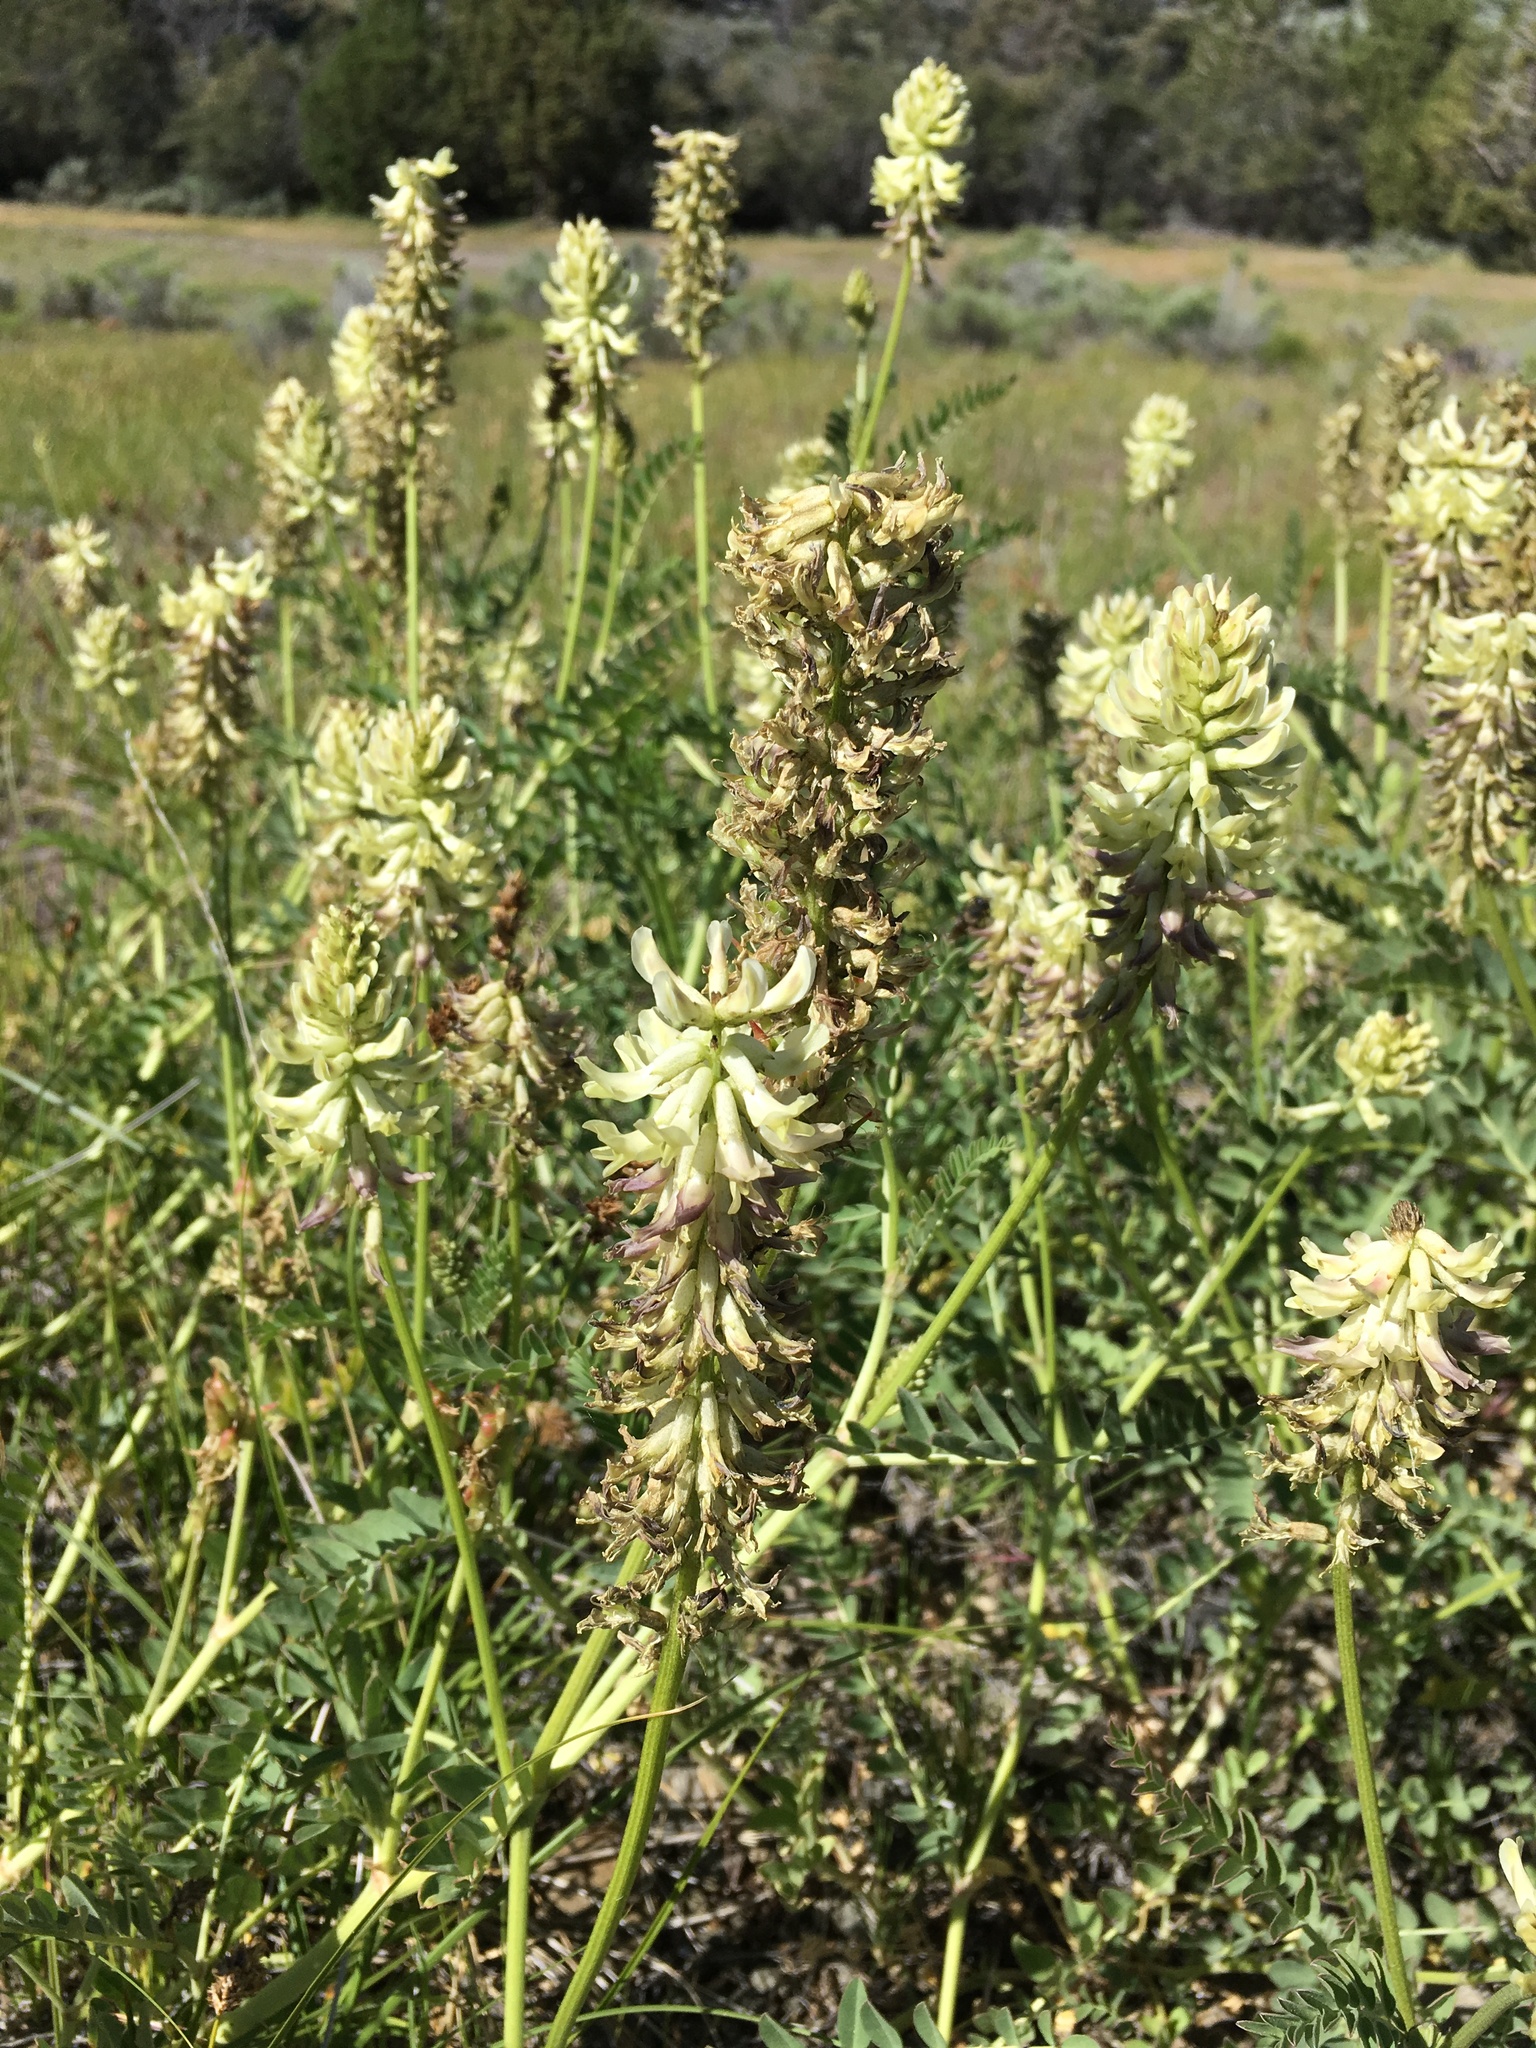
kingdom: Plantae
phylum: Tracheophyta
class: Magnoliopsida
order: Fabales
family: Fabaceae
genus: Astragalus
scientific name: Astragalus canadensis
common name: Canada milk-vetch
